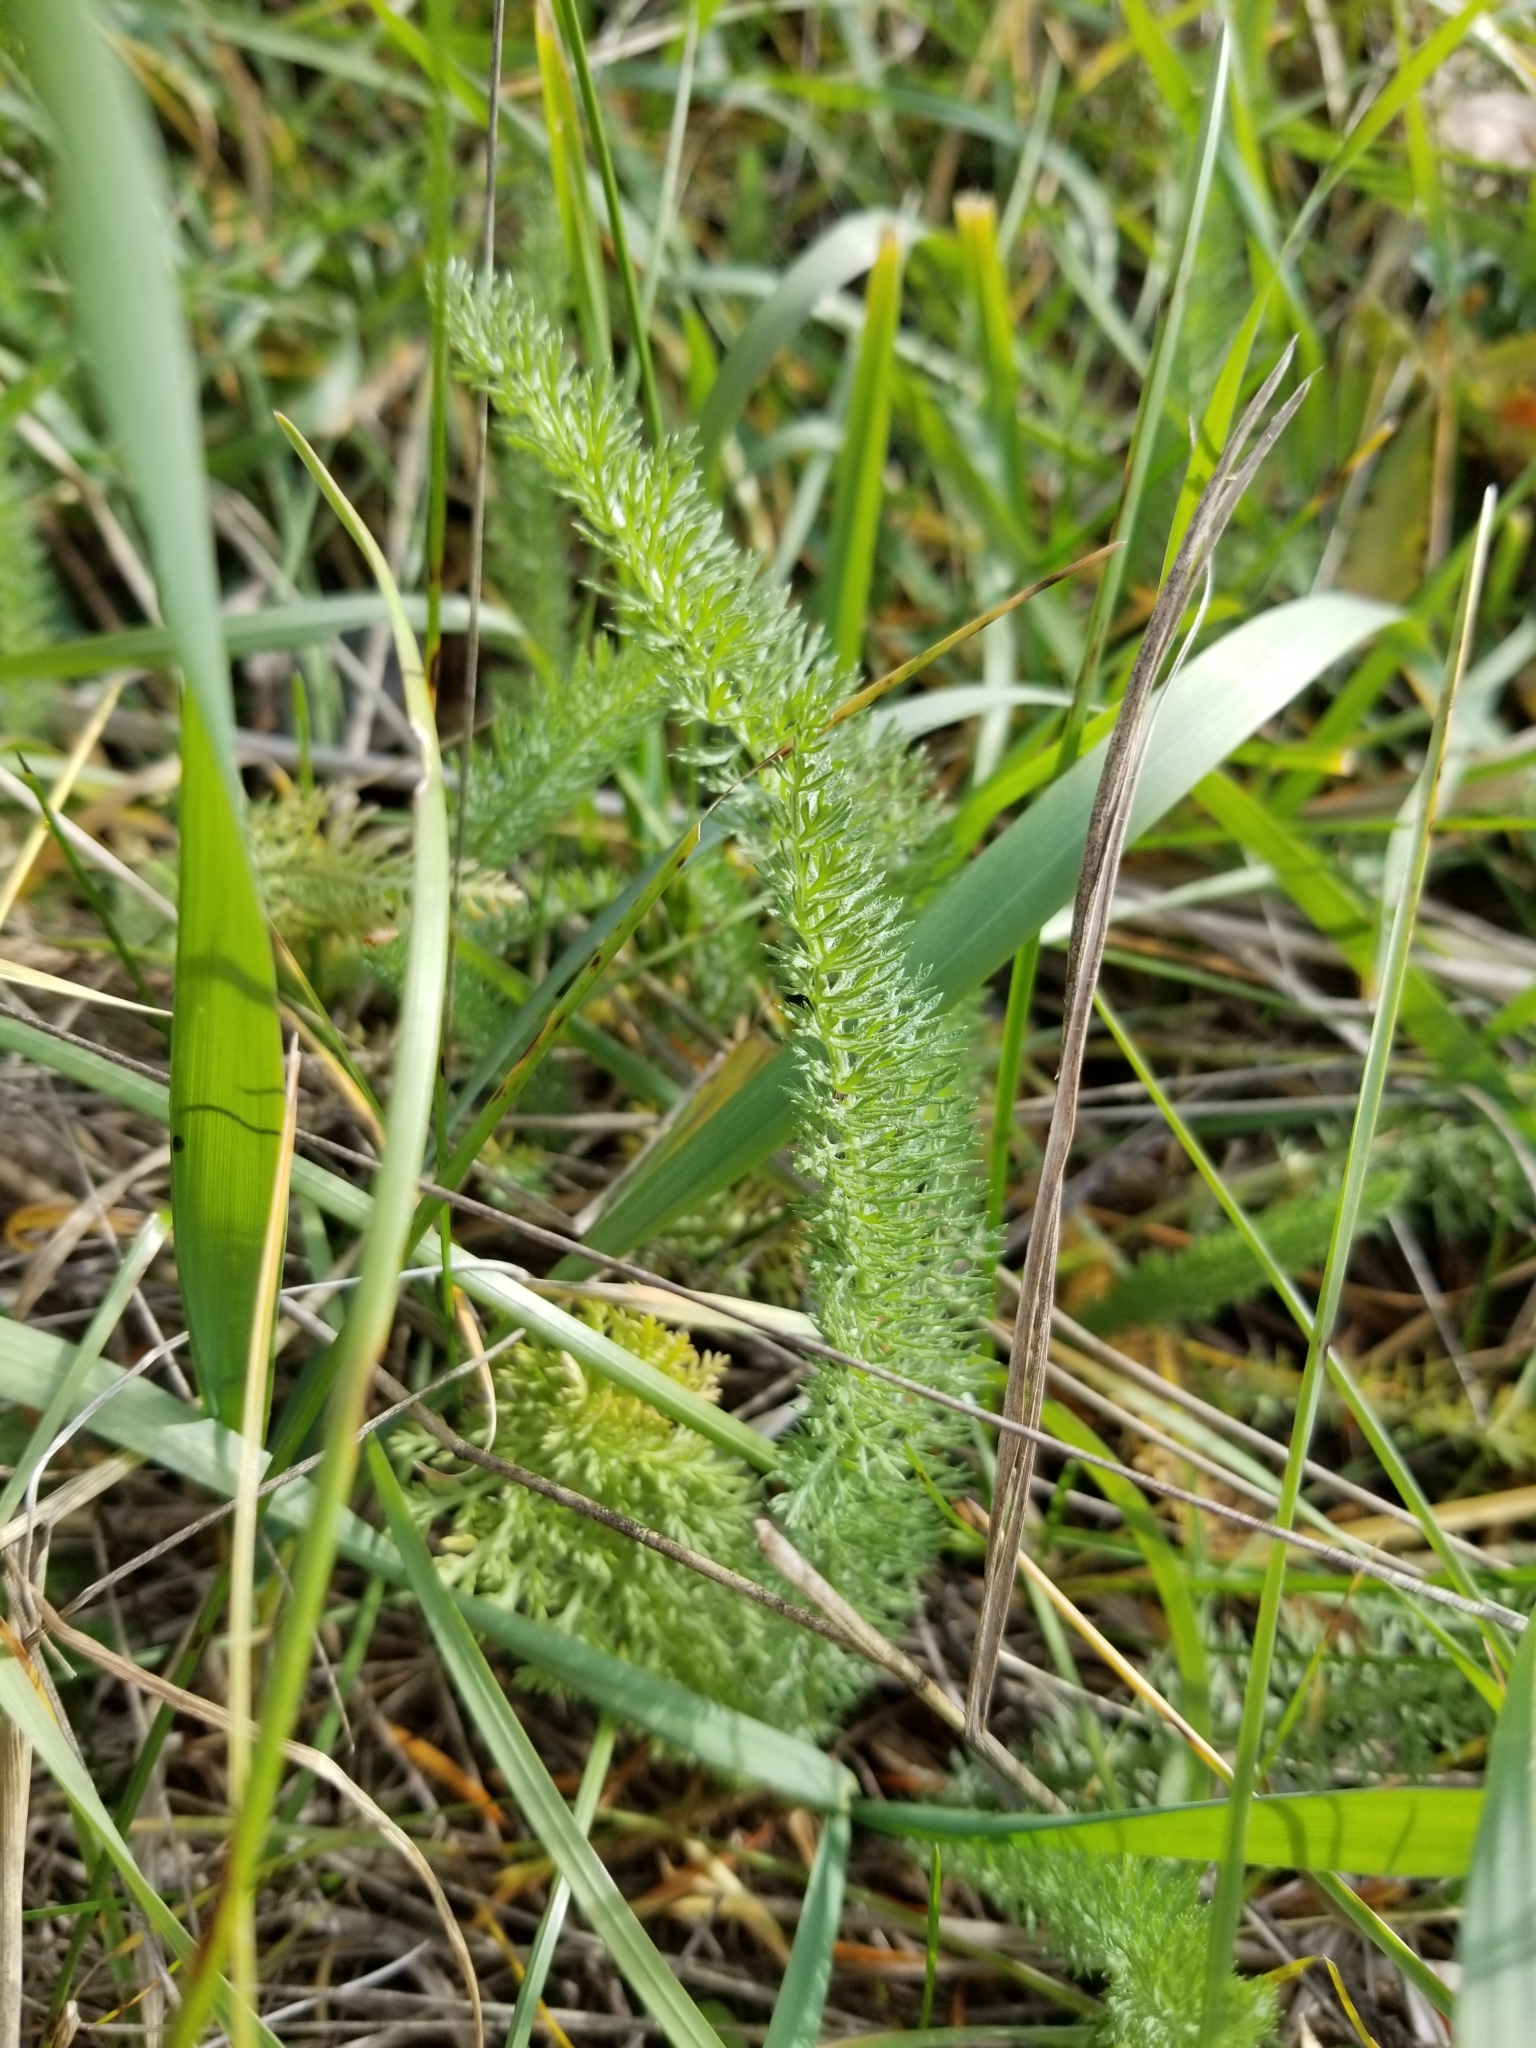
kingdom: Plantae
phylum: Tracheophyta
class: Magnoliopsida
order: Asterales
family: Asteraceae
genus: Achillea
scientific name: Achillea millefolium
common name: Yarrow
